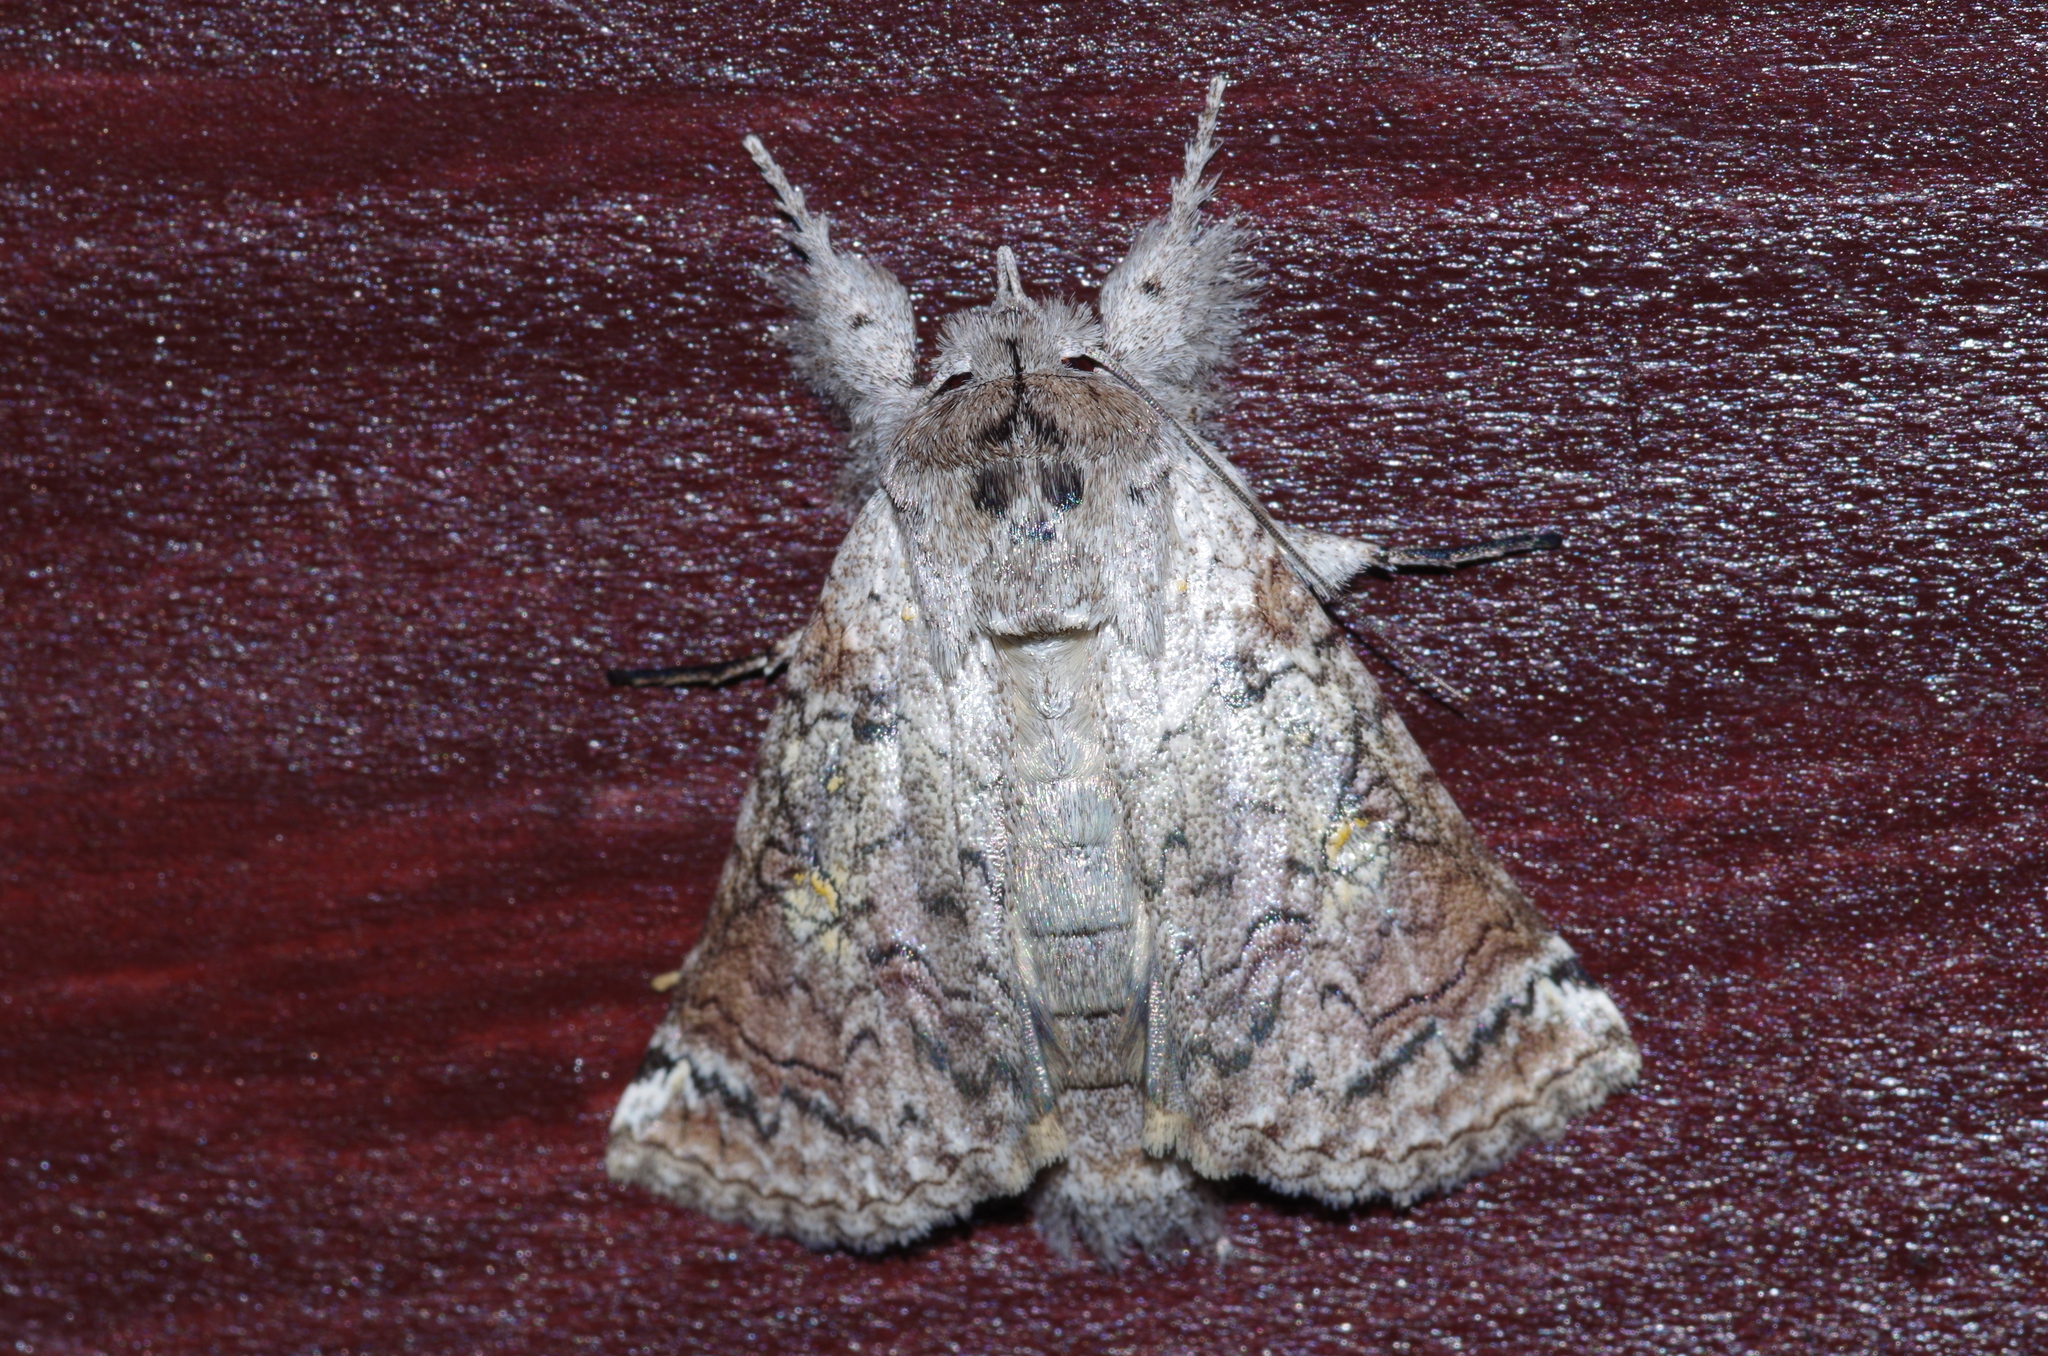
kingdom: Animalia
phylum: Arthropoda
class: Insecta
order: Lepidoptera
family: Nolidae
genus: Macrobarasa
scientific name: Macrobarasa xantholopha
